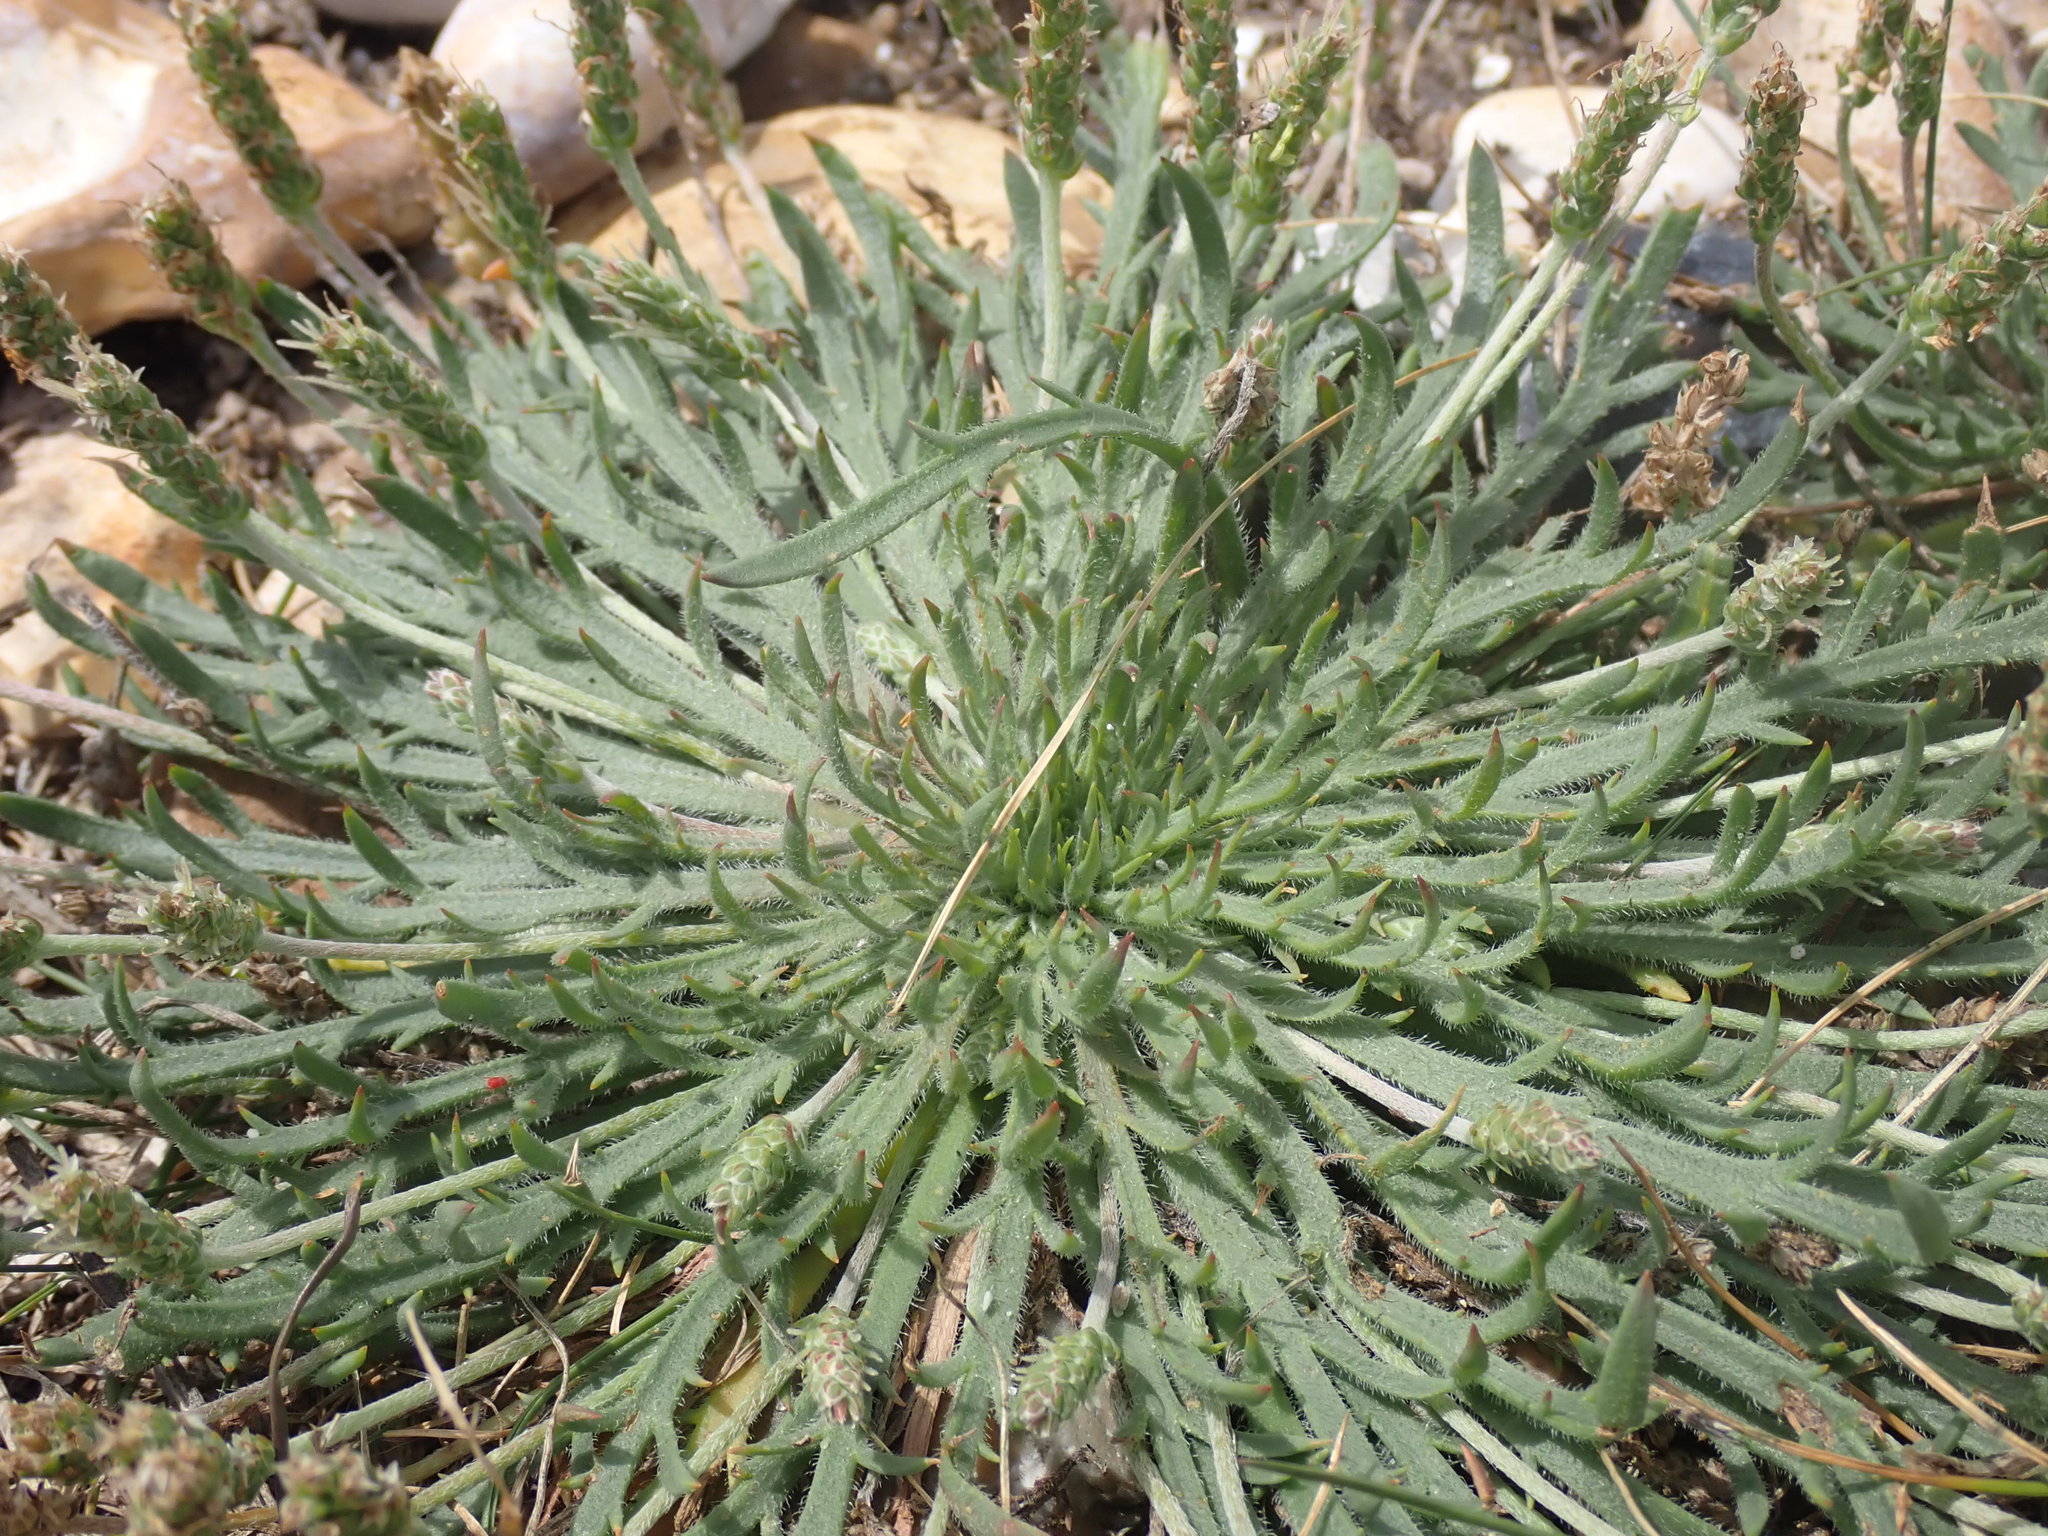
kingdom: Plantae
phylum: Tracheophyta
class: Magnoliopsida
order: Lamiales
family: Plantaginaceae
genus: Plantago
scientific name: Plantago coronopus
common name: Buck's-horn plantain
